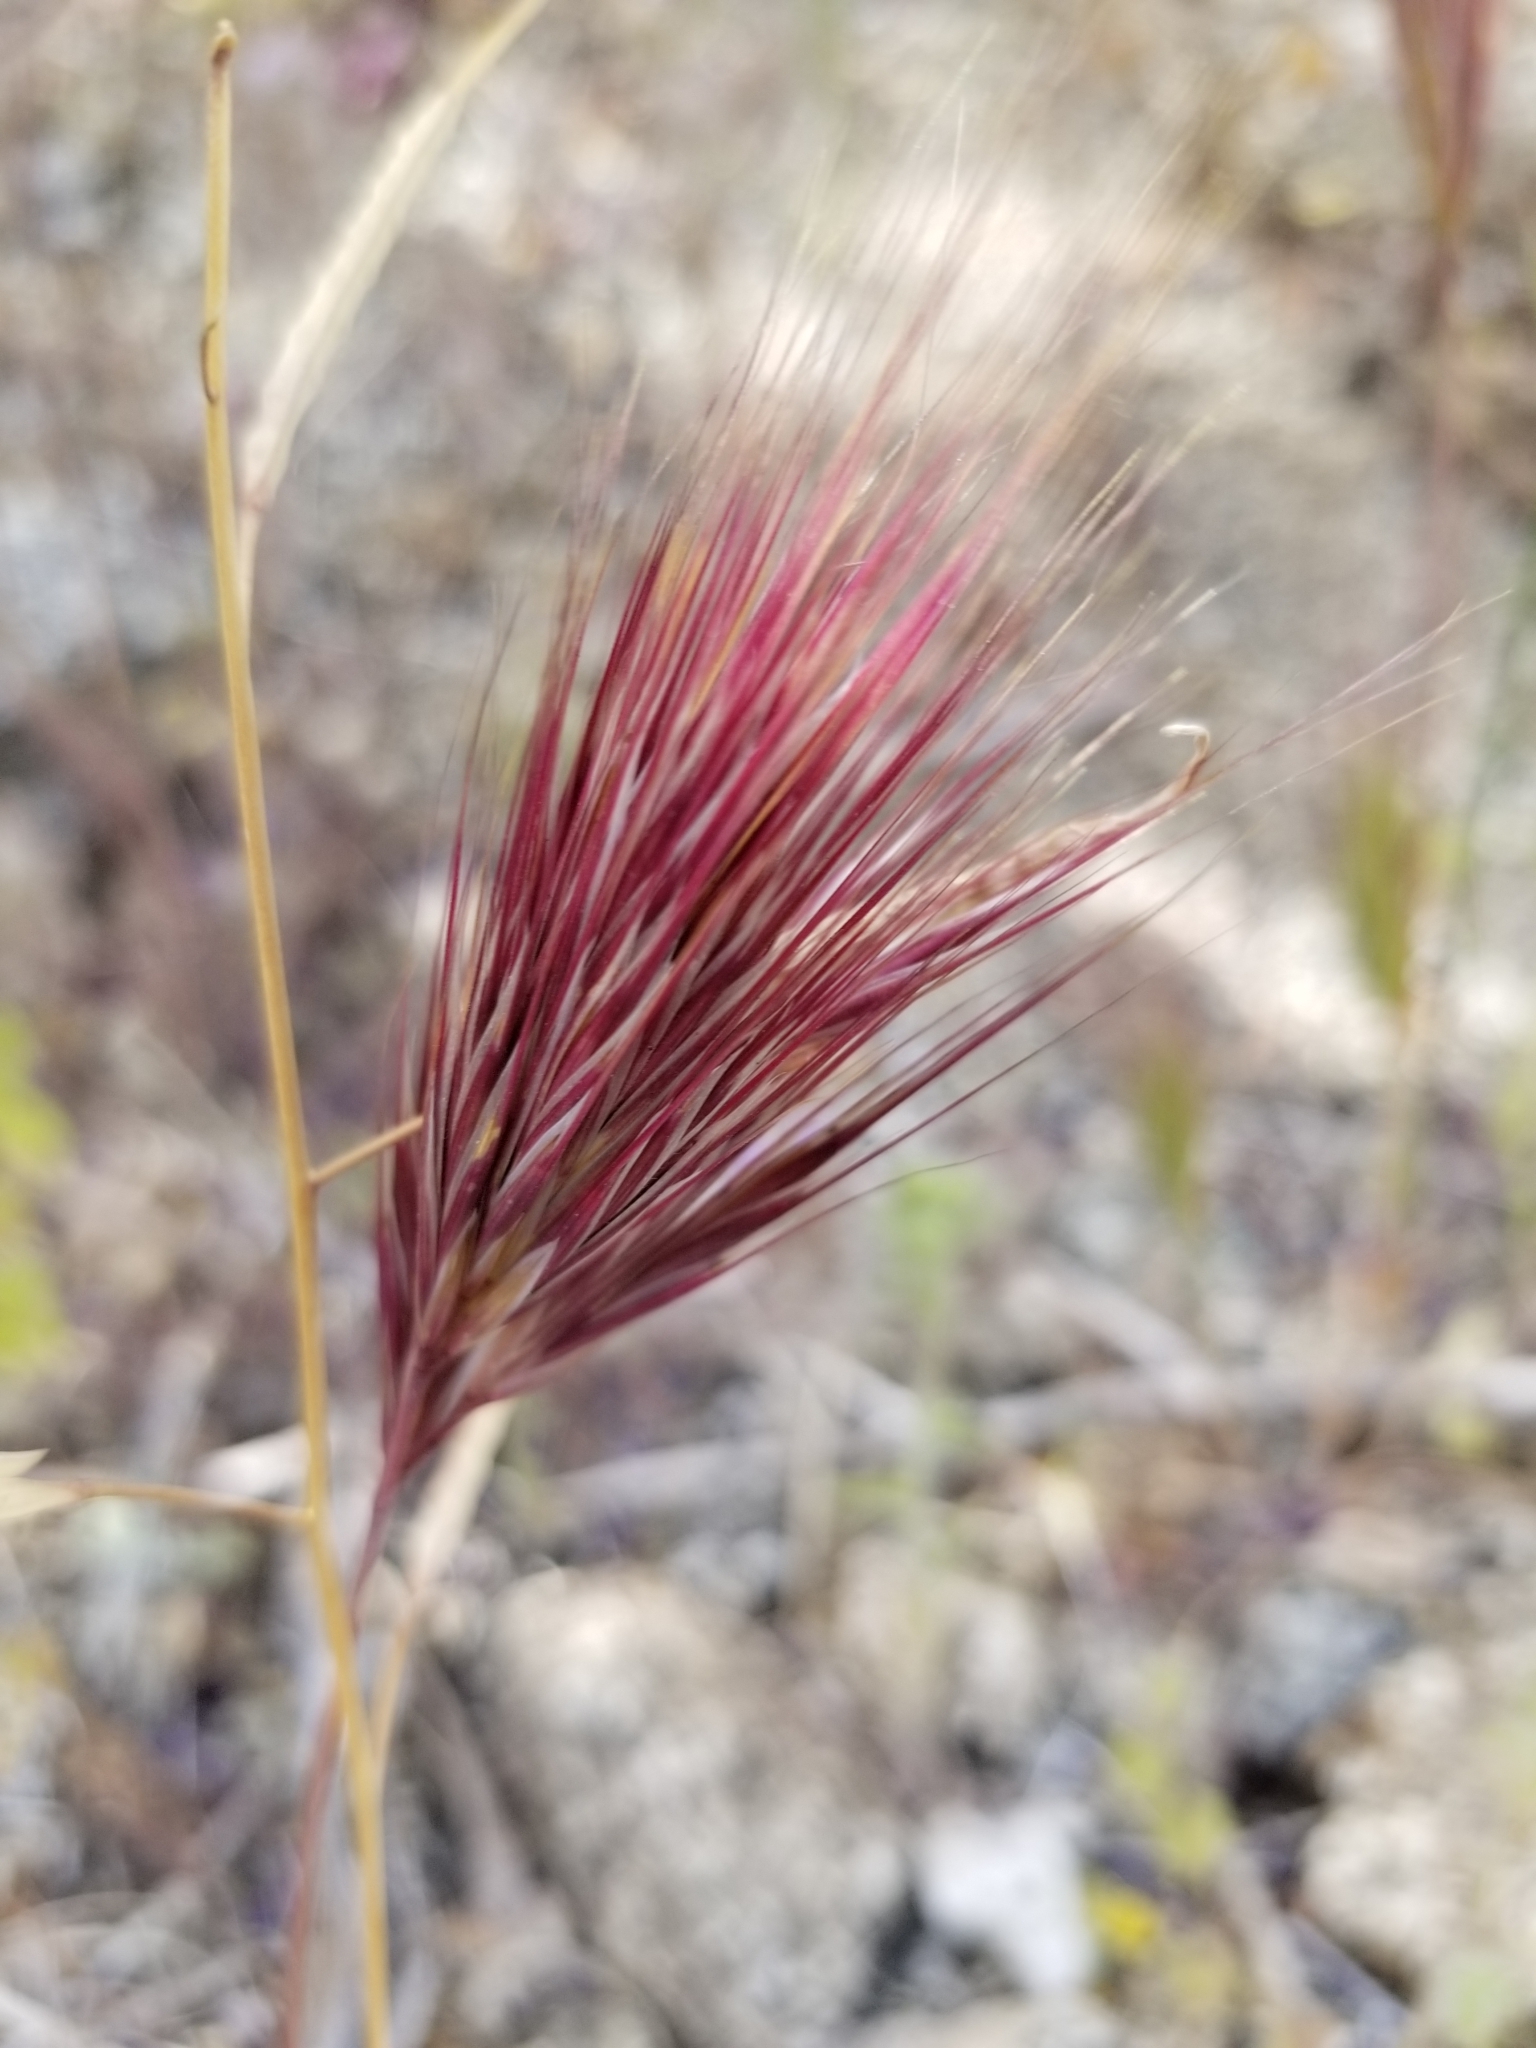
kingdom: Plantae
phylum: Tracheophyta
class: Liliopsida
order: Poales
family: Poaceae
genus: Bromus
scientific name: Bromus rubens
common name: Red brome
